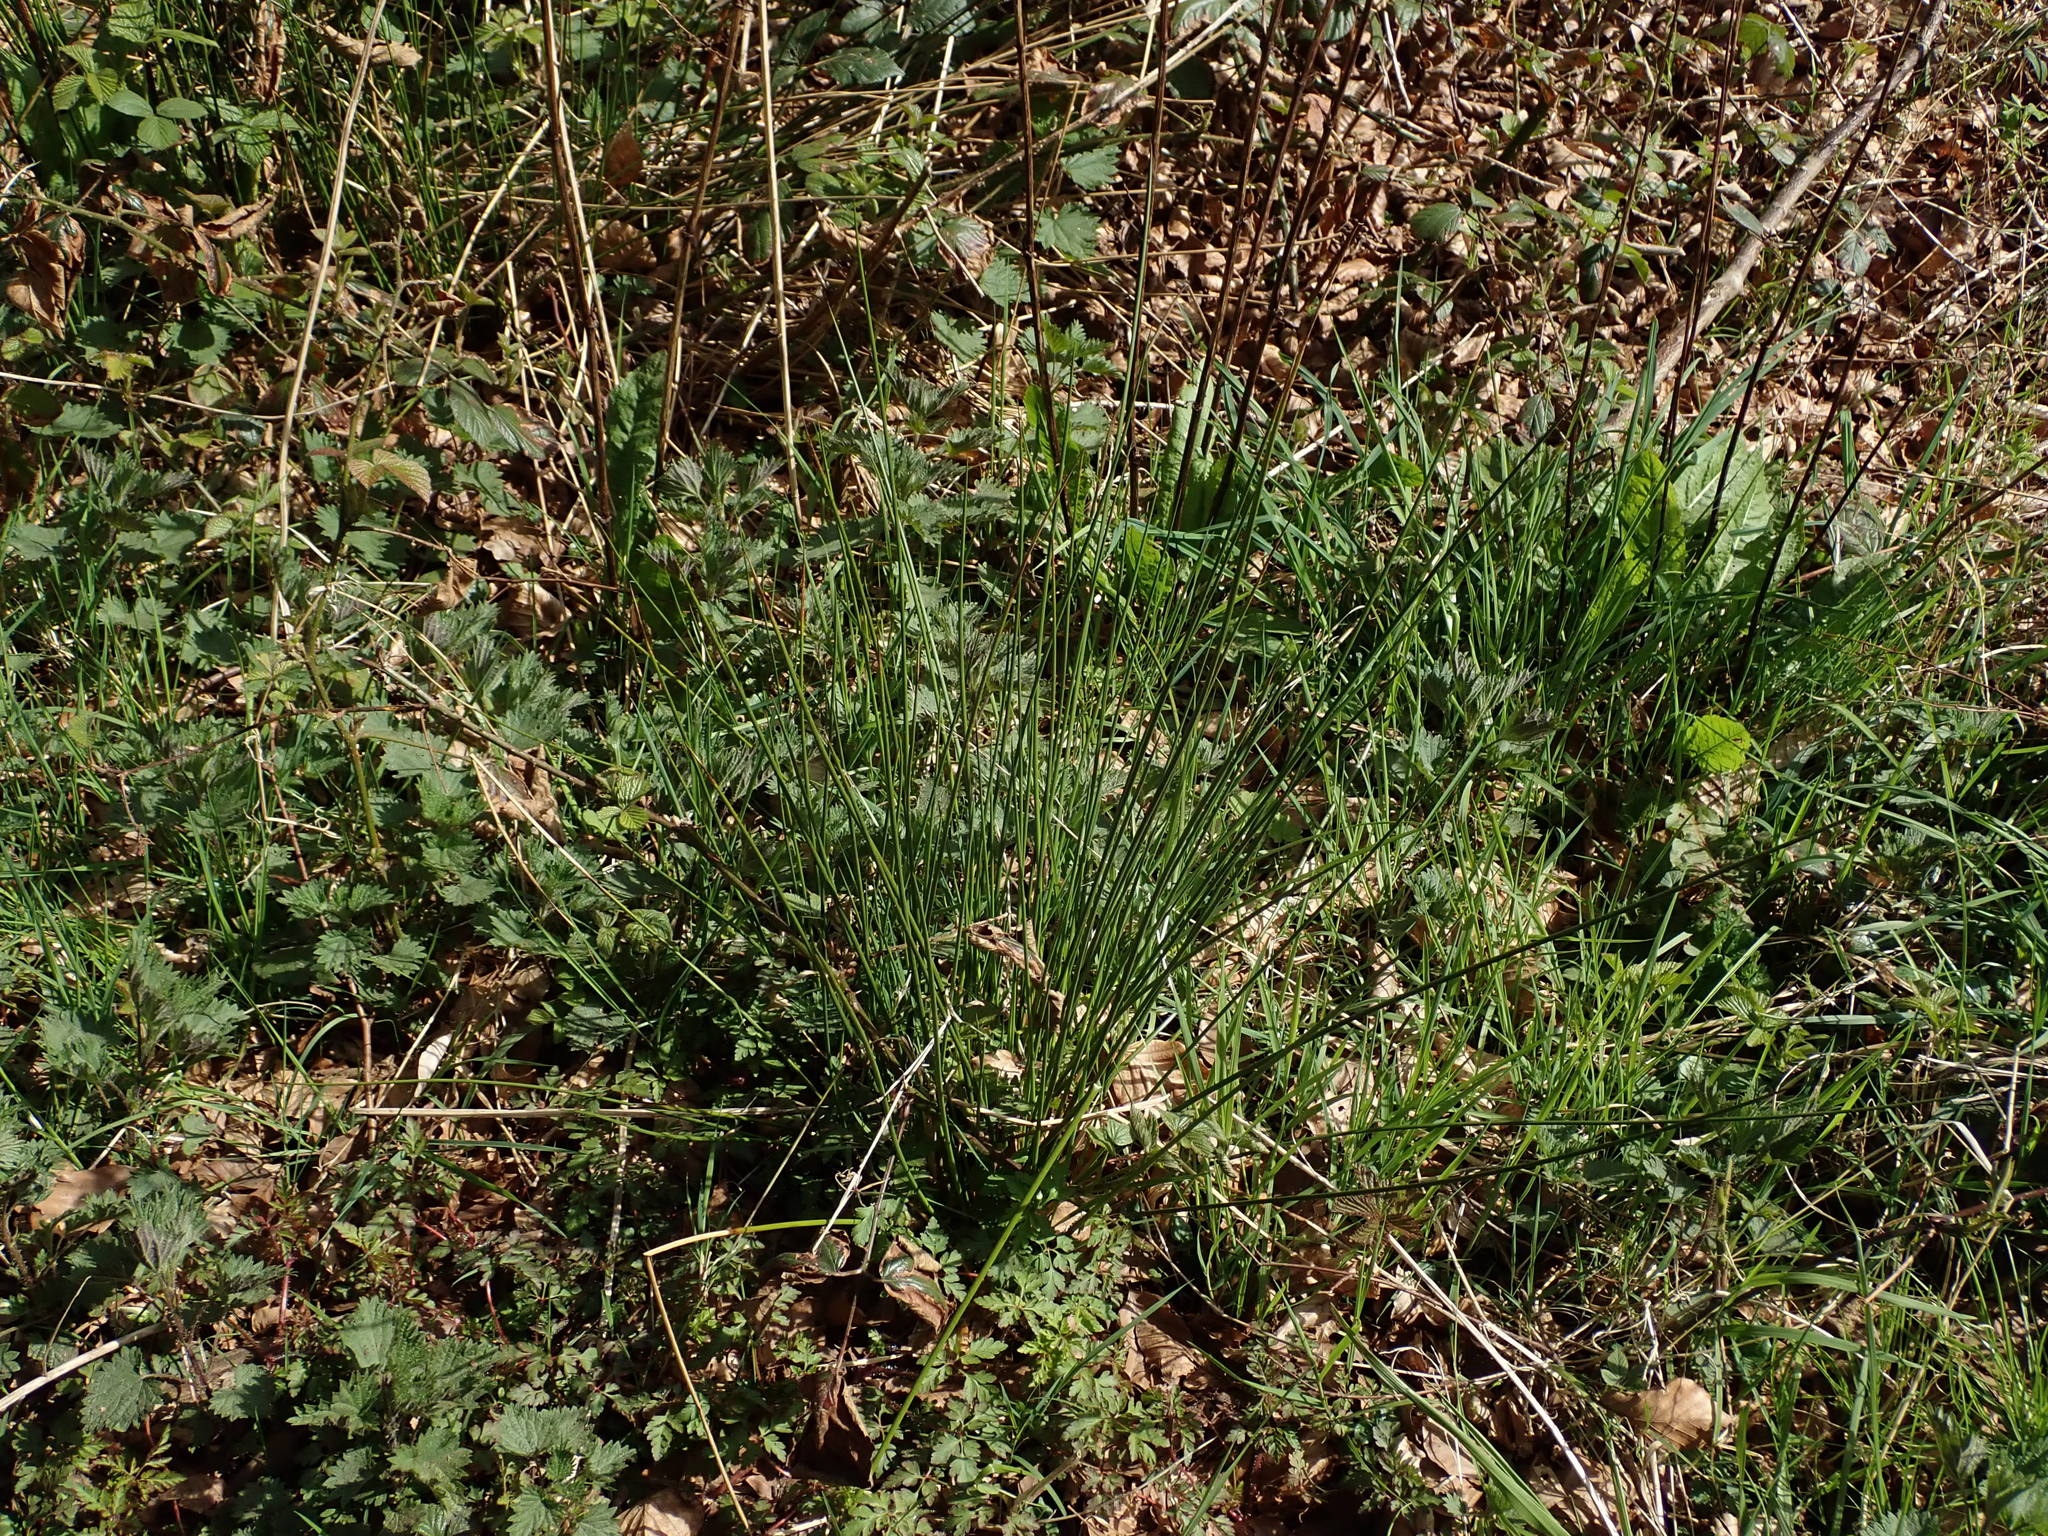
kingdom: Plantae
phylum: Tracheophyta
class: Liliopsida
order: Poales
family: Juncaceae
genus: Juncus
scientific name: Juncus effusus
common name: Soft rush
